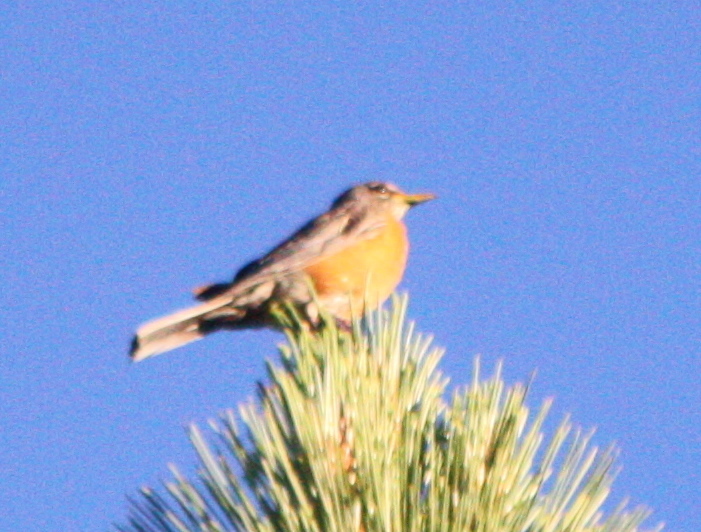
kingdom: Animalia
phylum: Chordata
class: Aves
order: Passeriformes
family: Turdidae
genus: Turdus
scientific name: Turdus migratorius
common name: American robin
